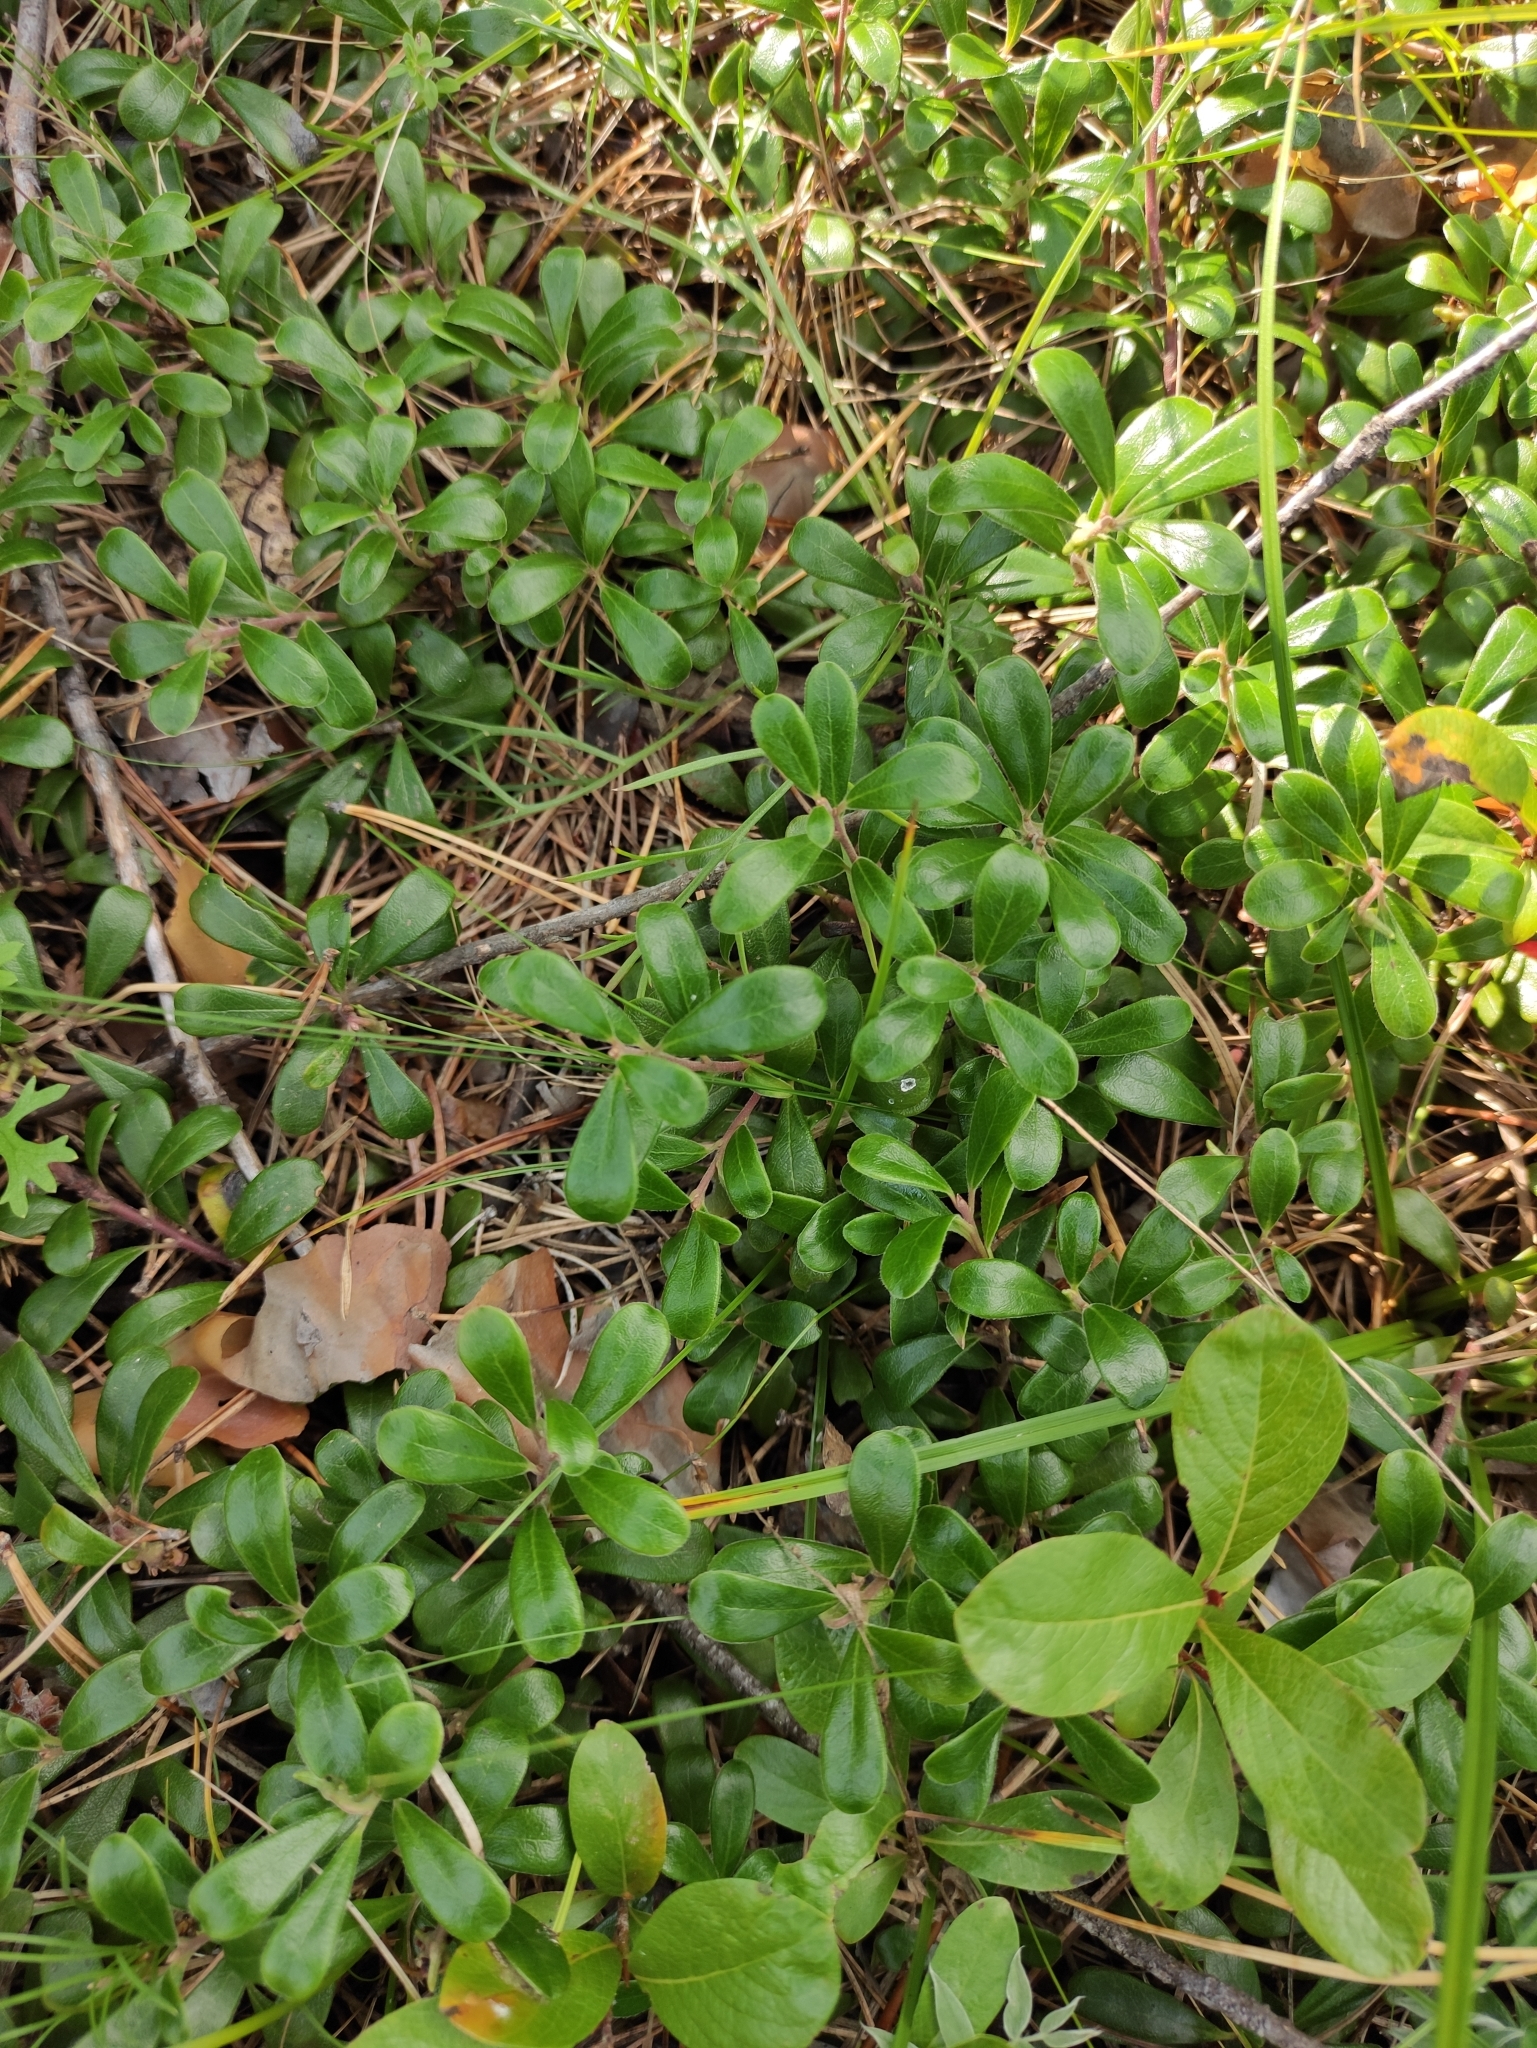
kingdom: Plantae
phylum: Tracheophyta
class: Magnoliopsida
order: Ericales
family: Ericaceae
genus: Arctostaphylos
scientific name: Arctostaphylos uva-ursi
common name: Bearberry
